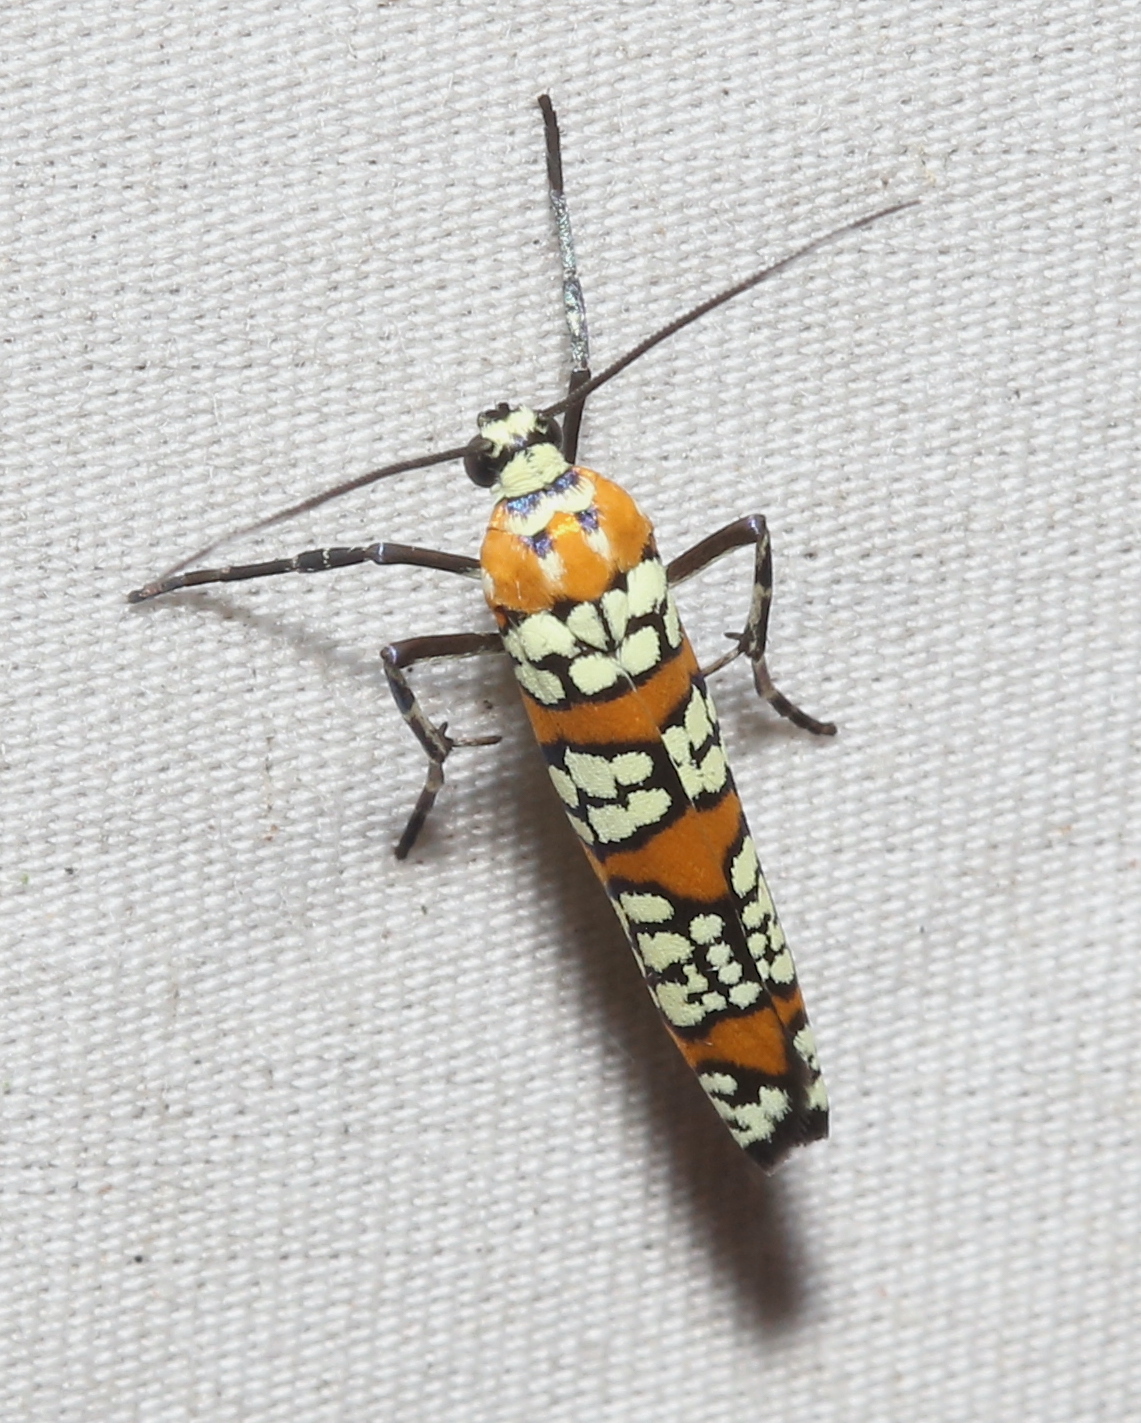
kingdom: Animalia
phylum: Arthropoda
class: Insecta
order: Lepidoptera
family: Attevidae
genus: Atteva
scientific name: Atteva punctella
